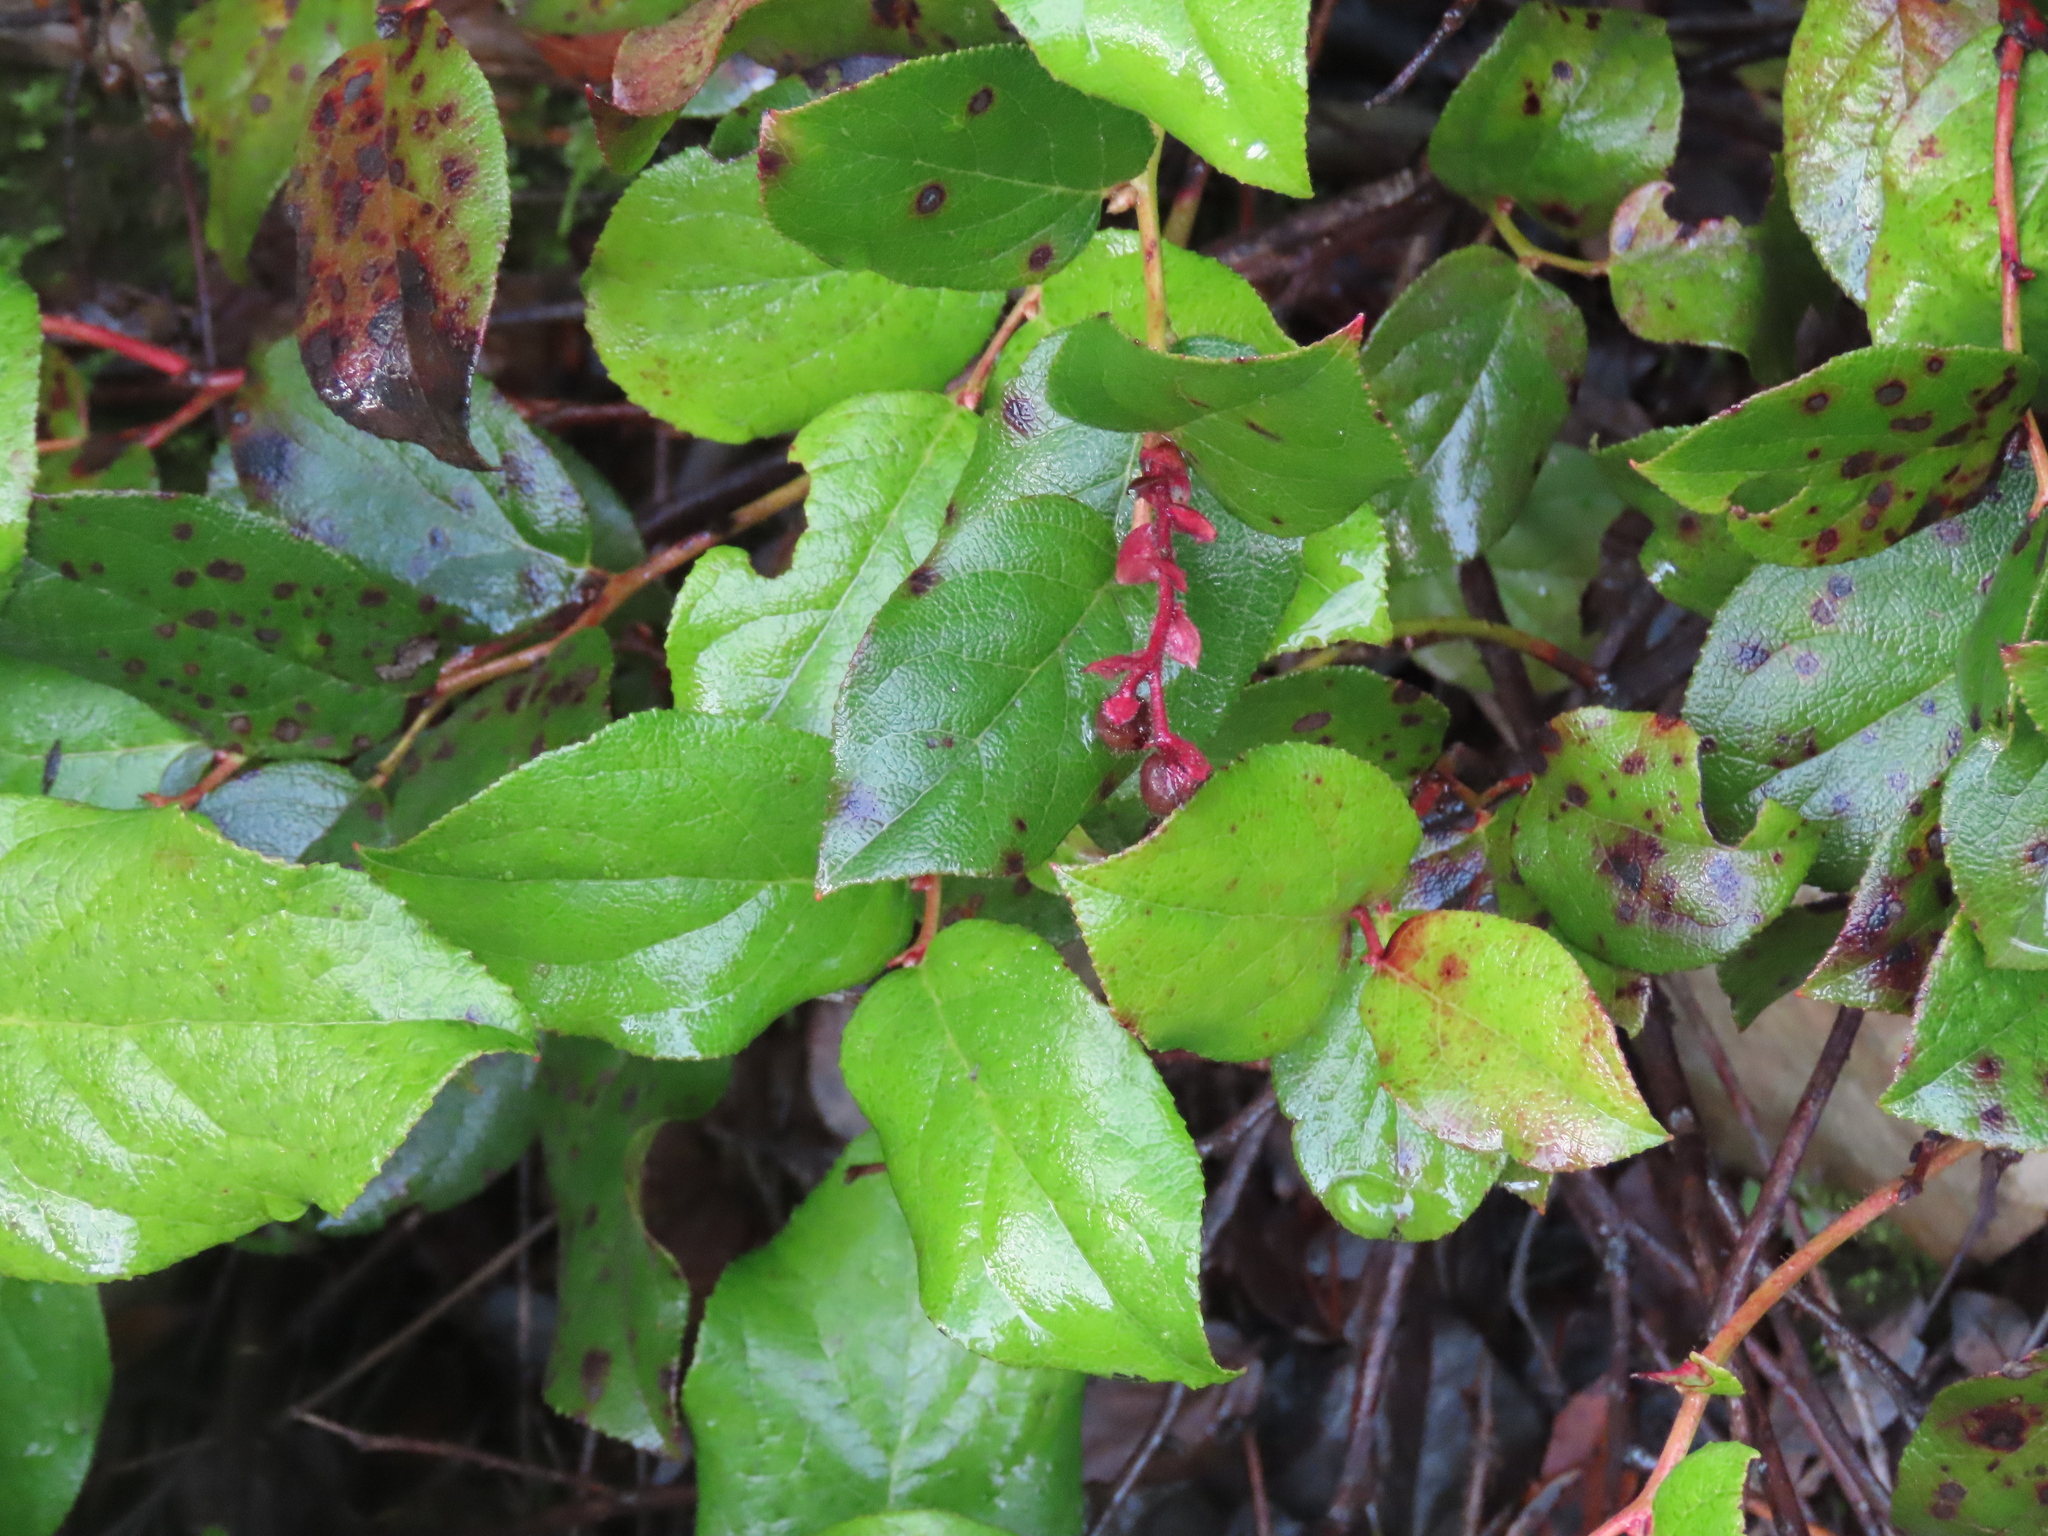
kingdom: Plantae
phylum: Tracheophyta
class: Magnoliopsida
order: Ericales
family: Ericaceae
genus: Gaultheria
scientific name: Gaultheria shallon
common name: Shallon
